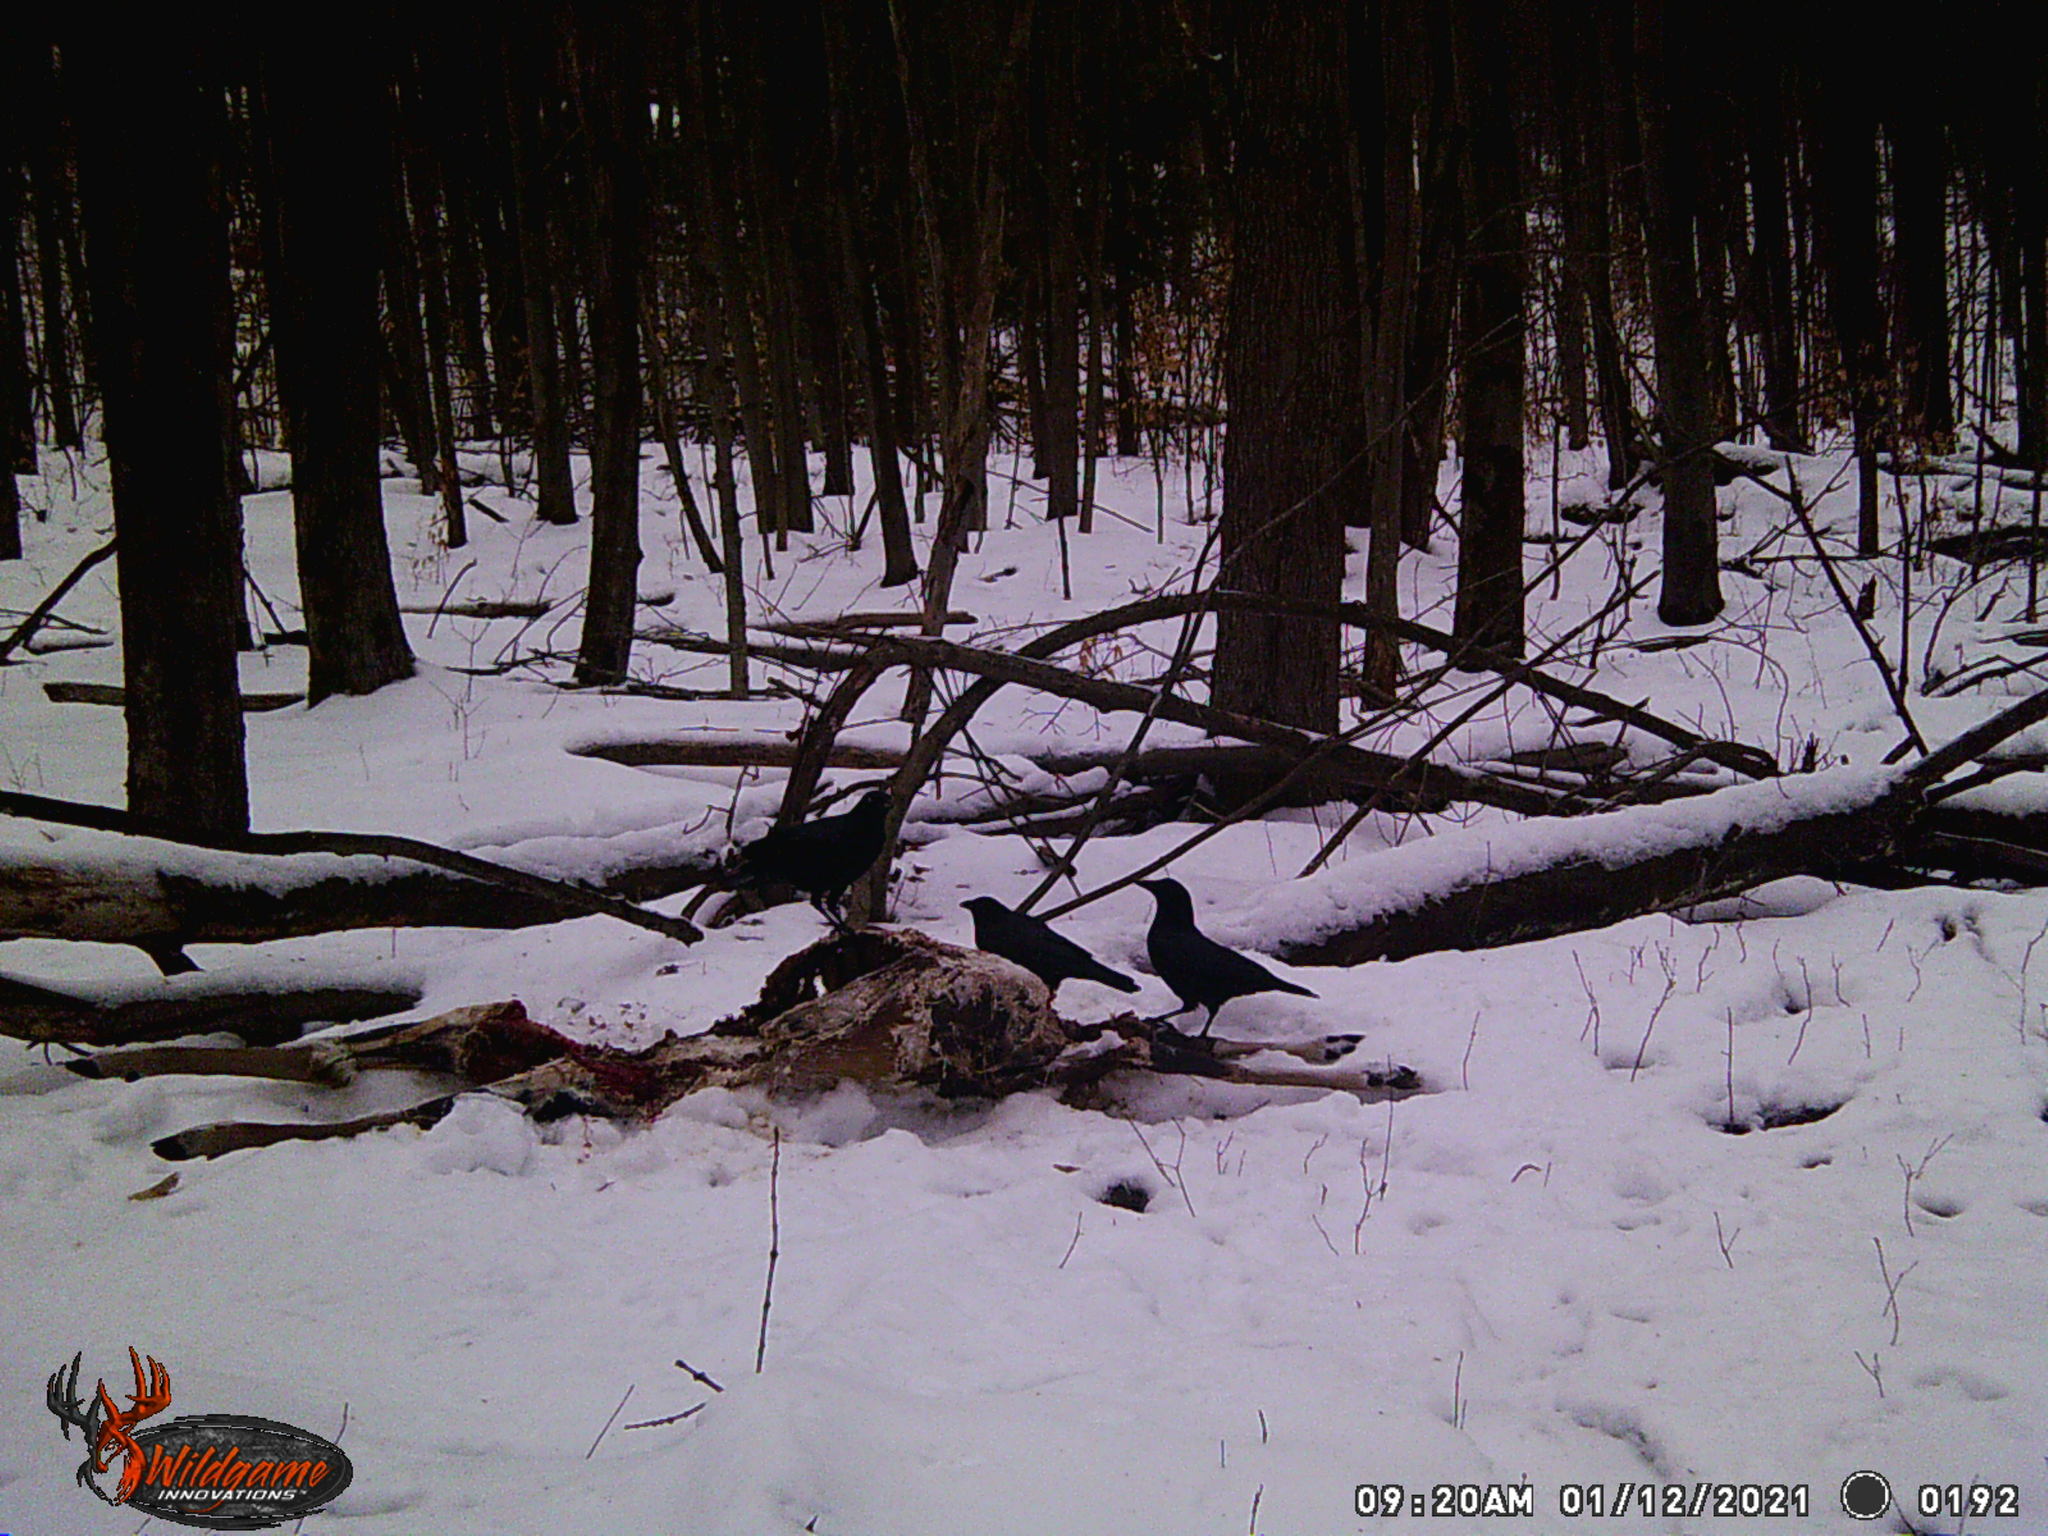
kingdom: Animalia
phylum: Chordata
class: Aves
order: Passeriformes
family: Corvidae
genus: Corvus
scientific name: Corvus brachyrhynchos
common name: American crow
